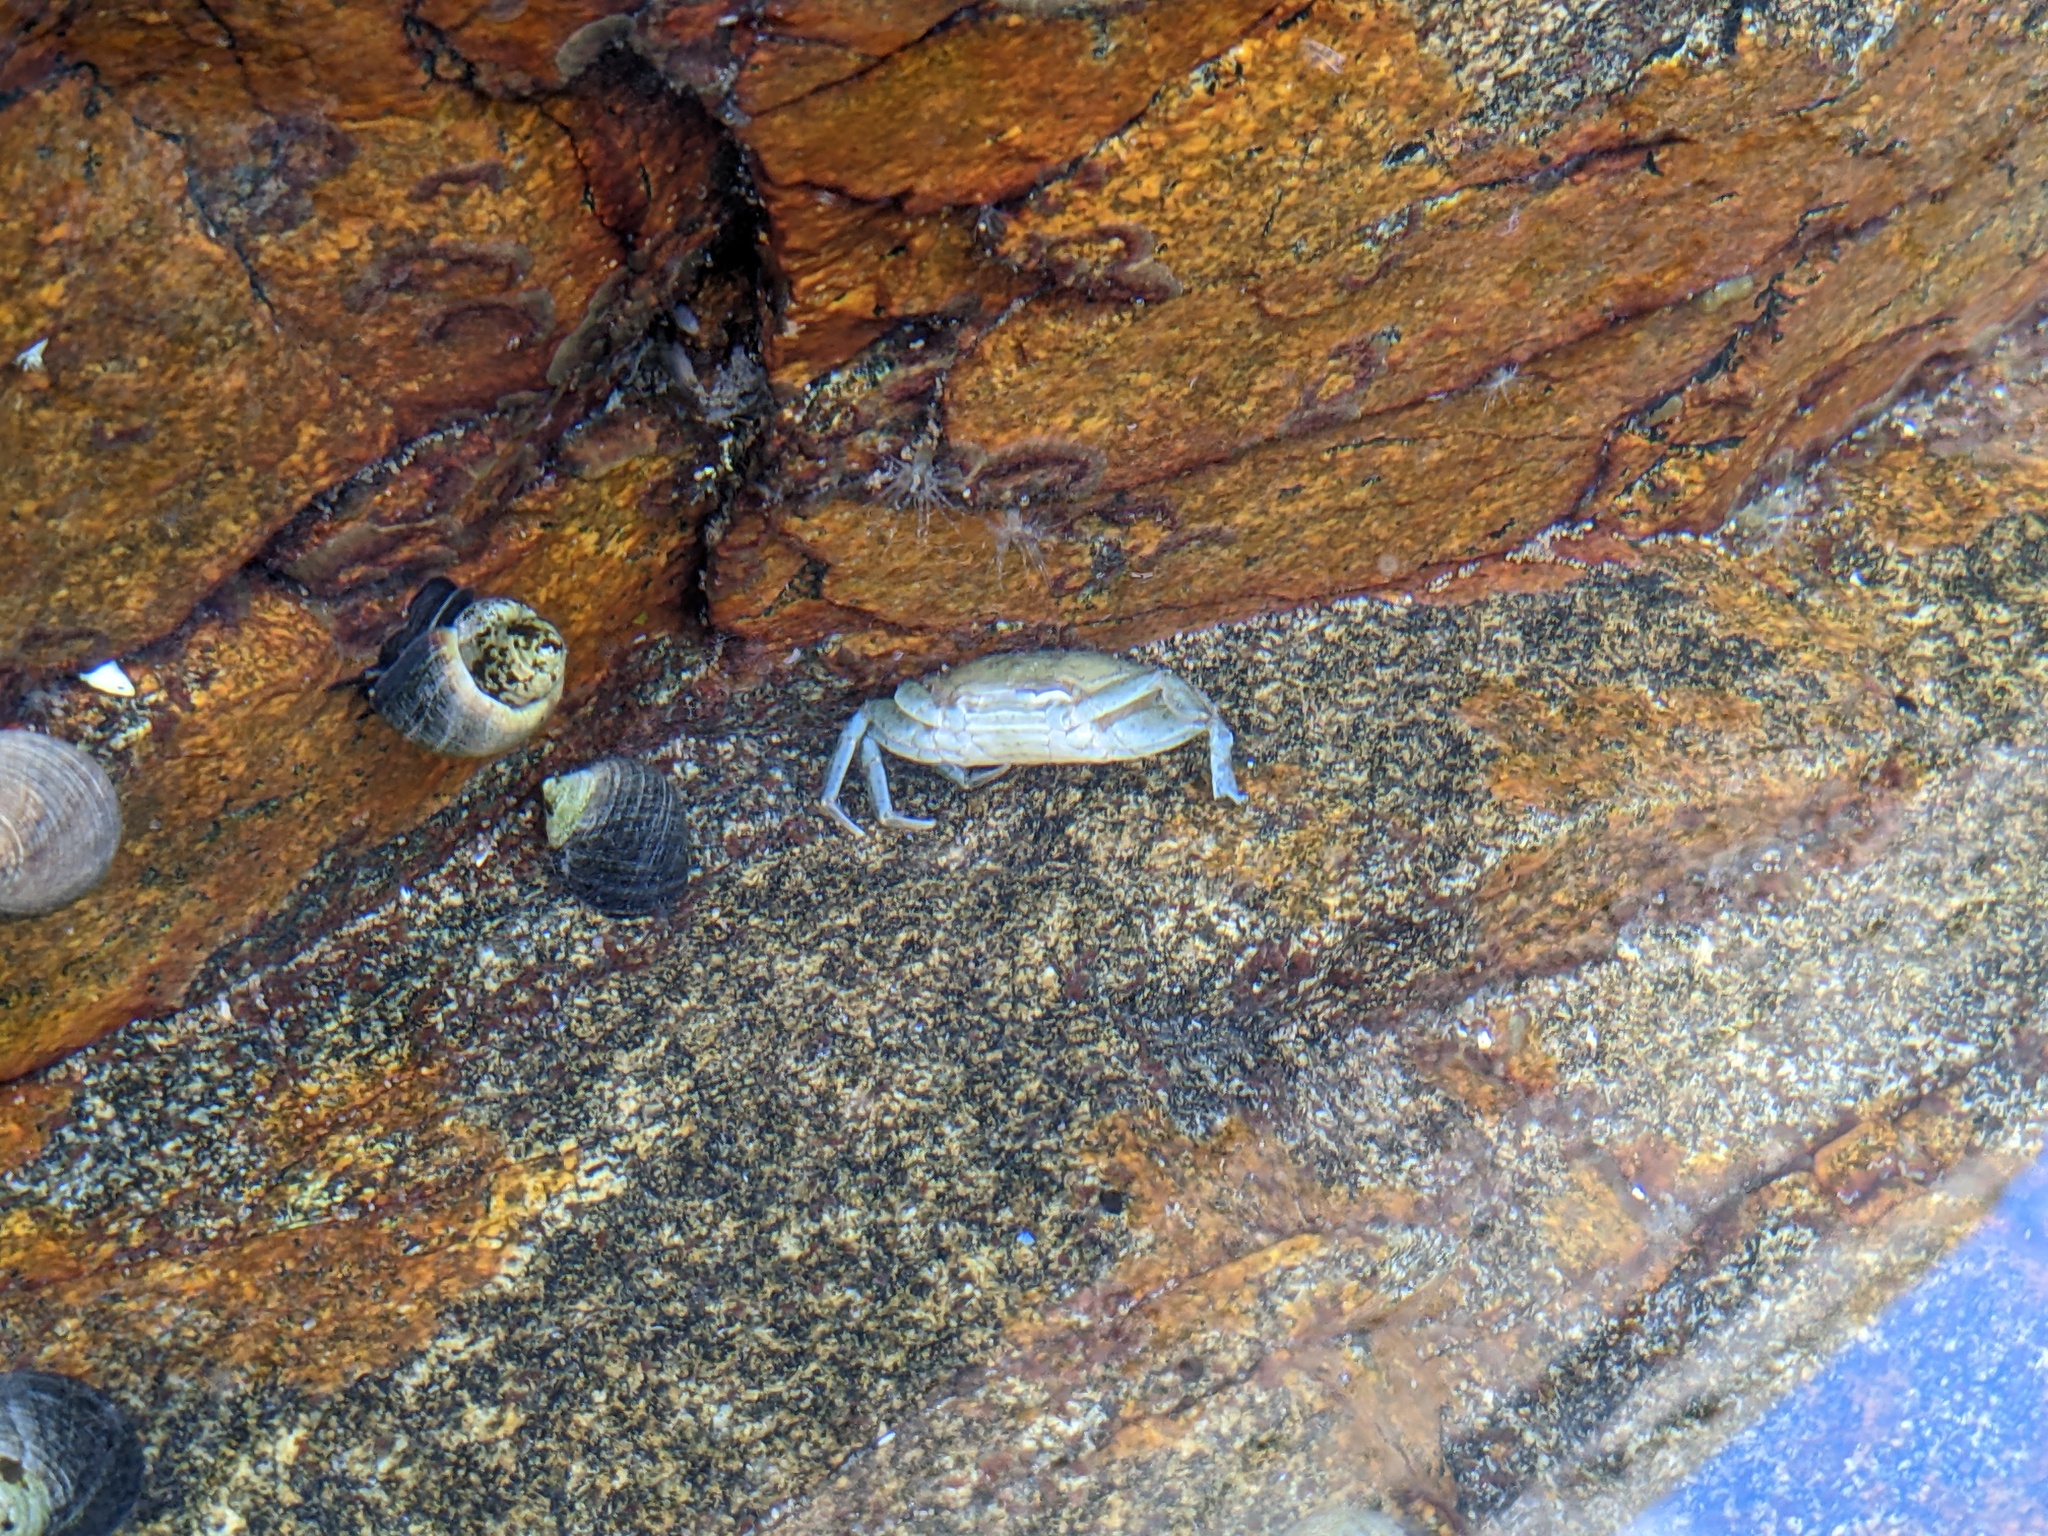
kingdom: Animalia
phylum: Arthropoda
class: Malacostraca
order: Decapoda
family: Carcinidae
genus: Carcinus
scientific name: Carcinus maenas
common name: European green crab
